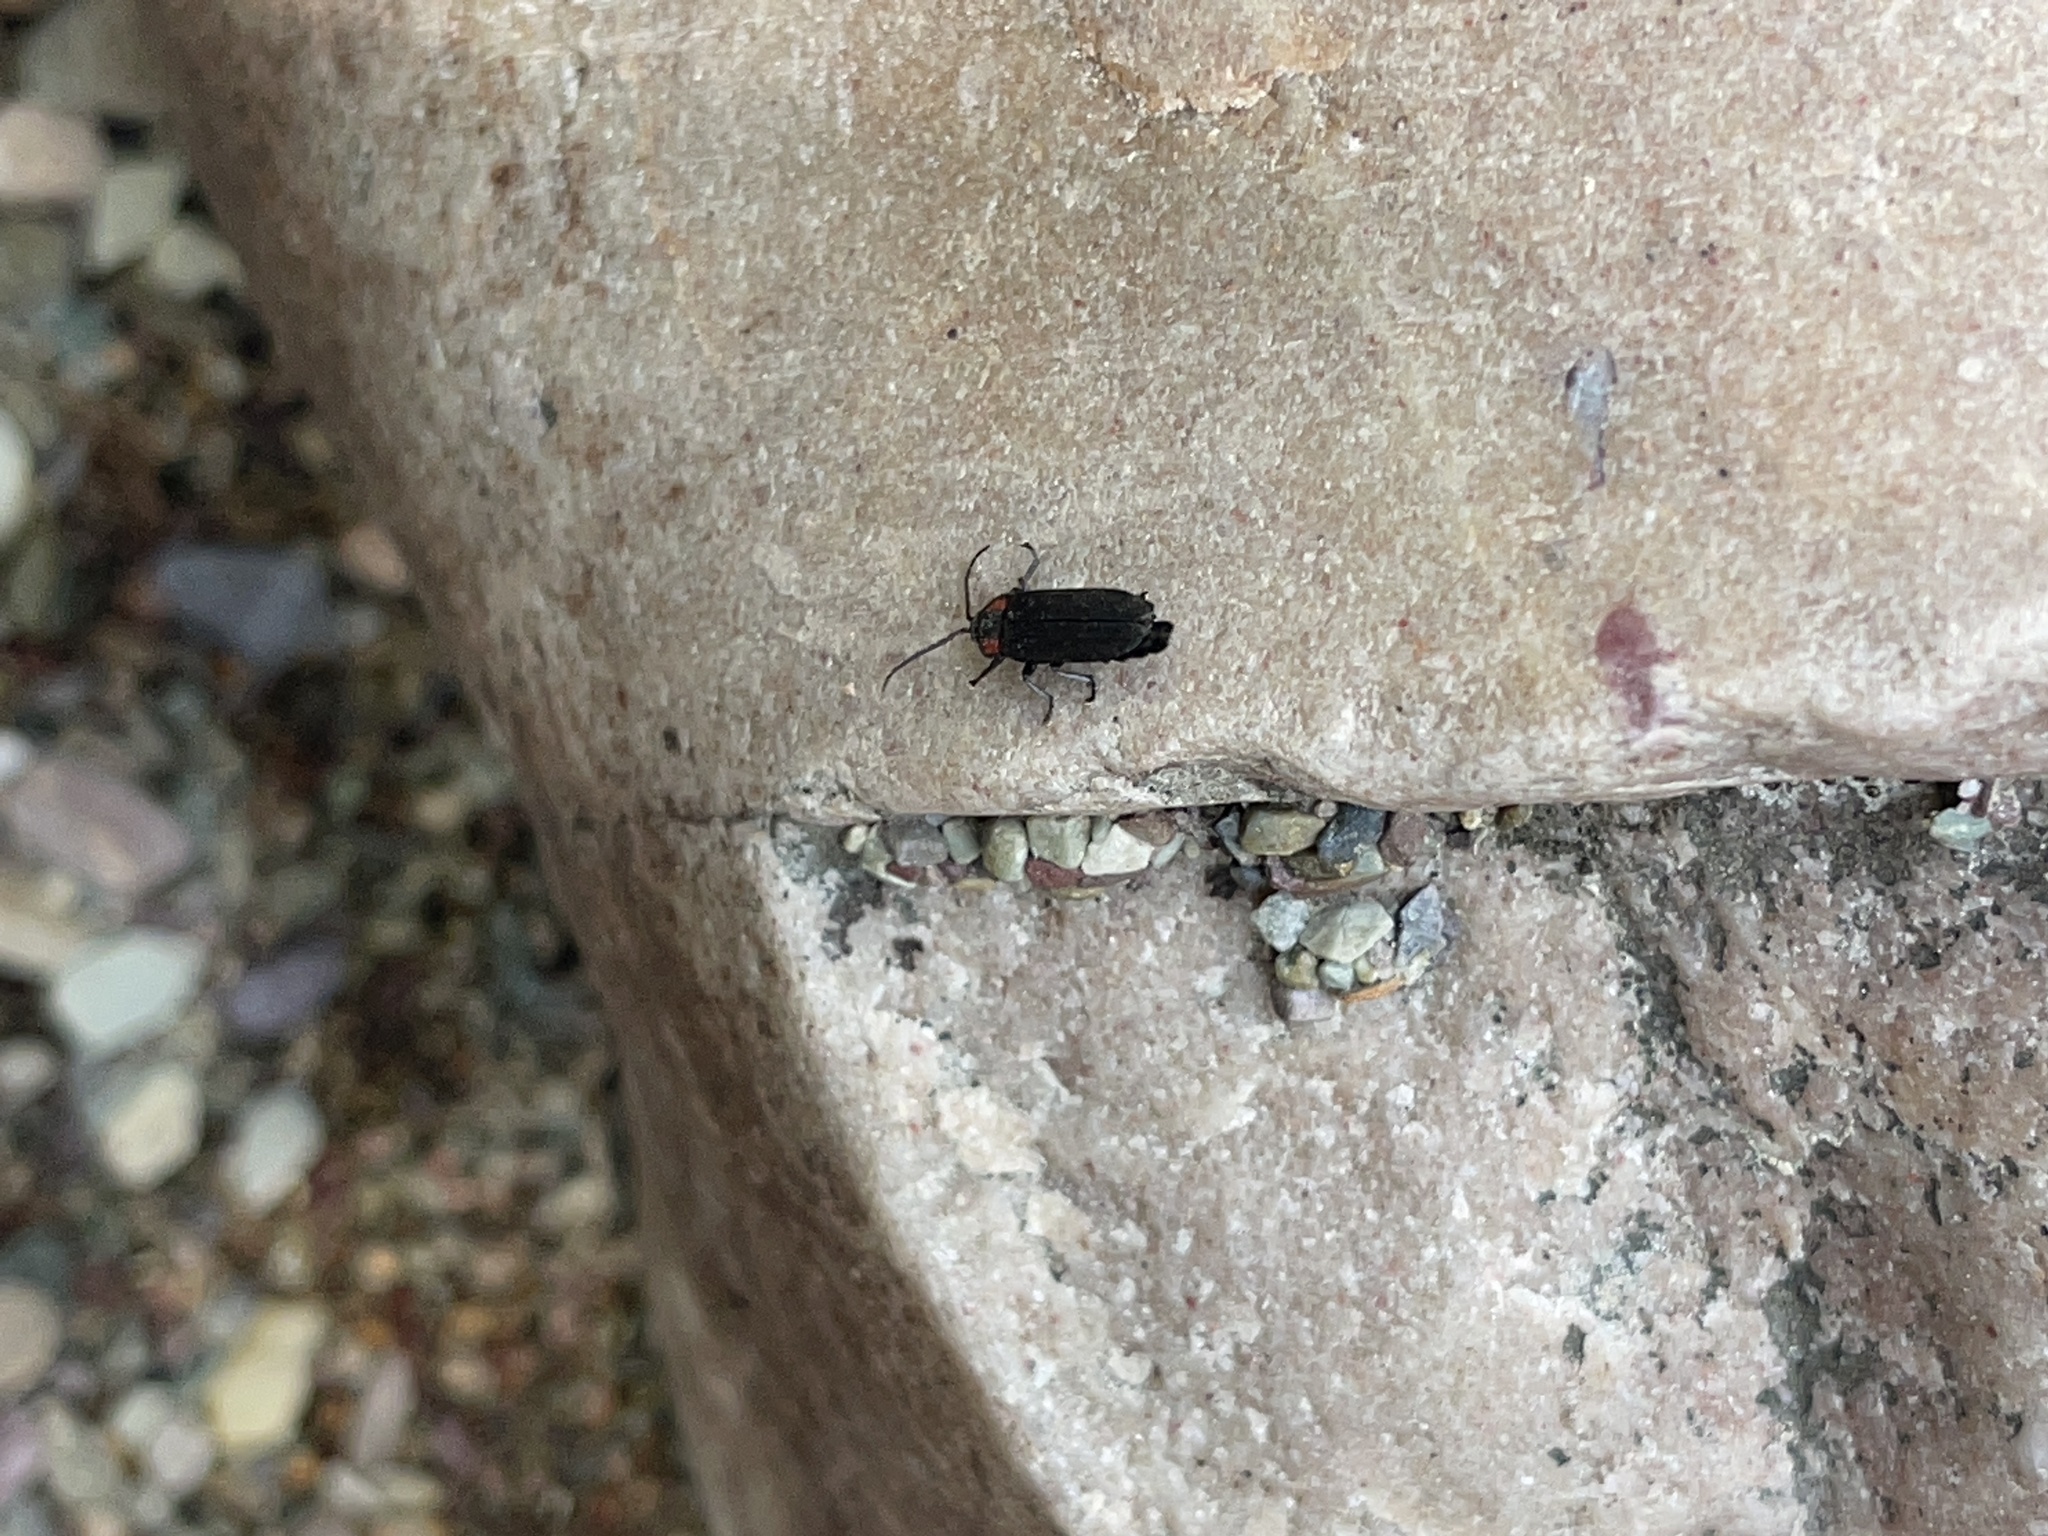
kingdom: Animalia
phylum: Arthropoda
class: Insecta
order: Coleoptera
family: Lampyridae
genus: Pyropyga
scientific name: Pyropyga nigricans
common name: Dark firefly
